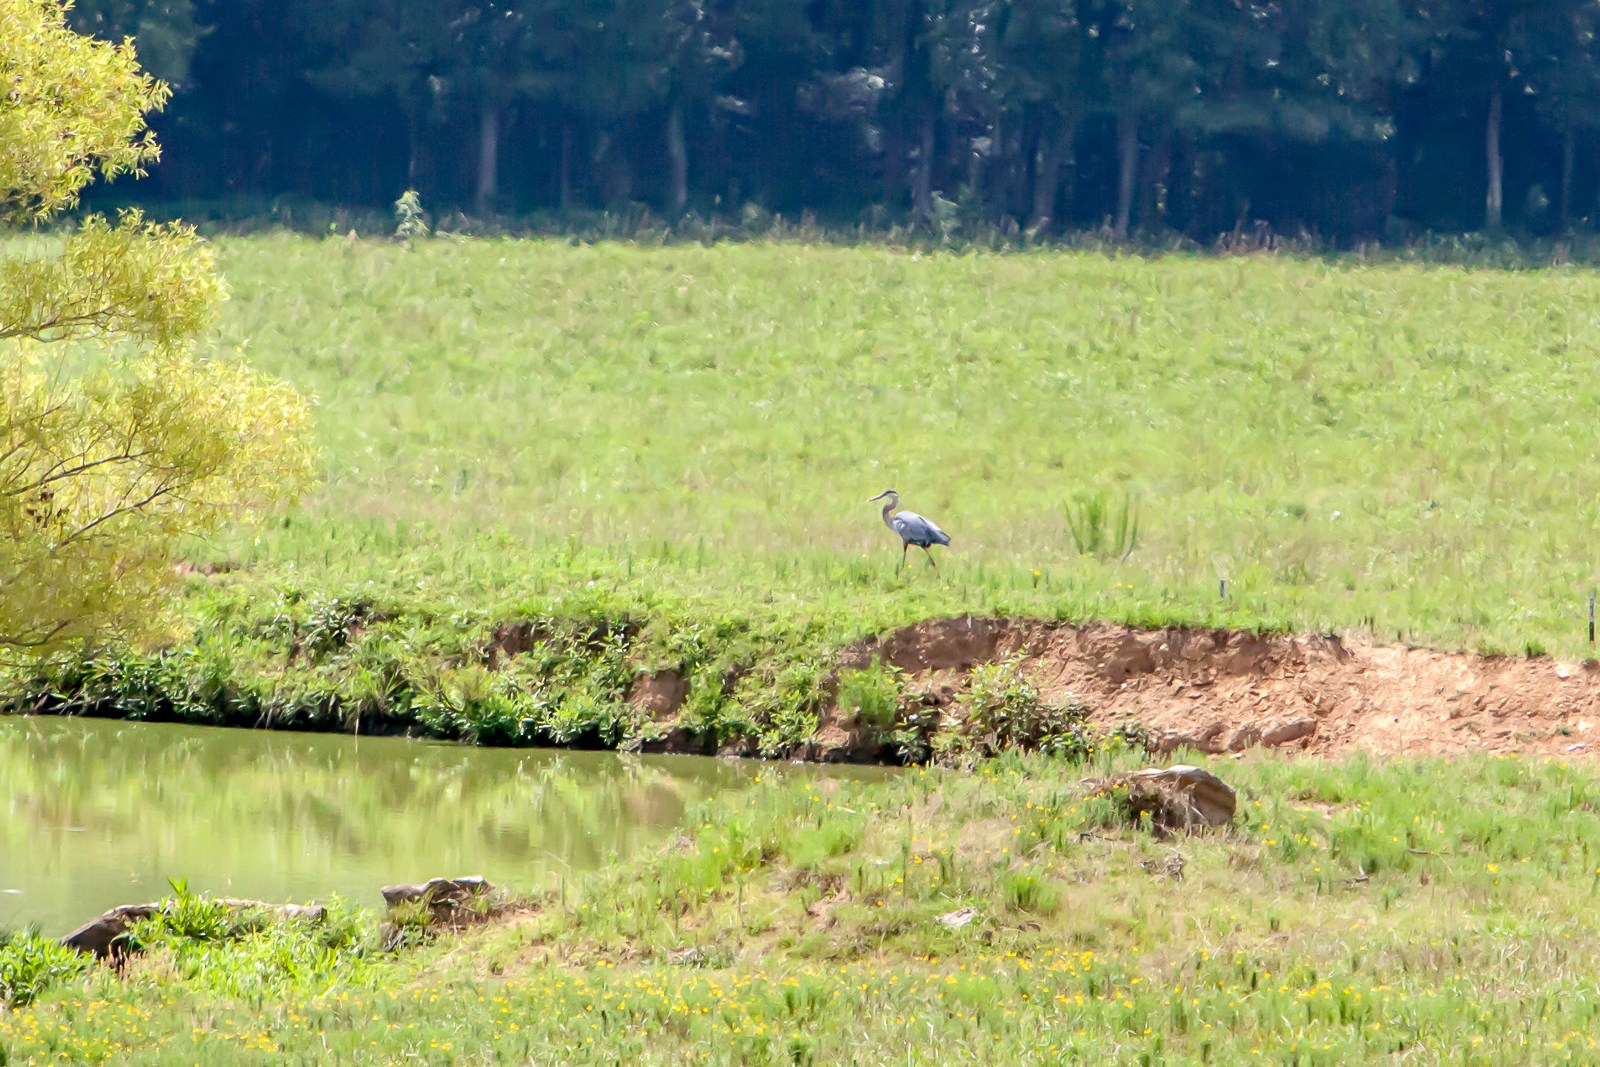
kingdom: Animalia
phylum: Chordata
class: Aves
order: Pelecaniformes
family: Ardeidae
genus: Ardea
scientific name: Ardea herodias
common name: Great blue heron
